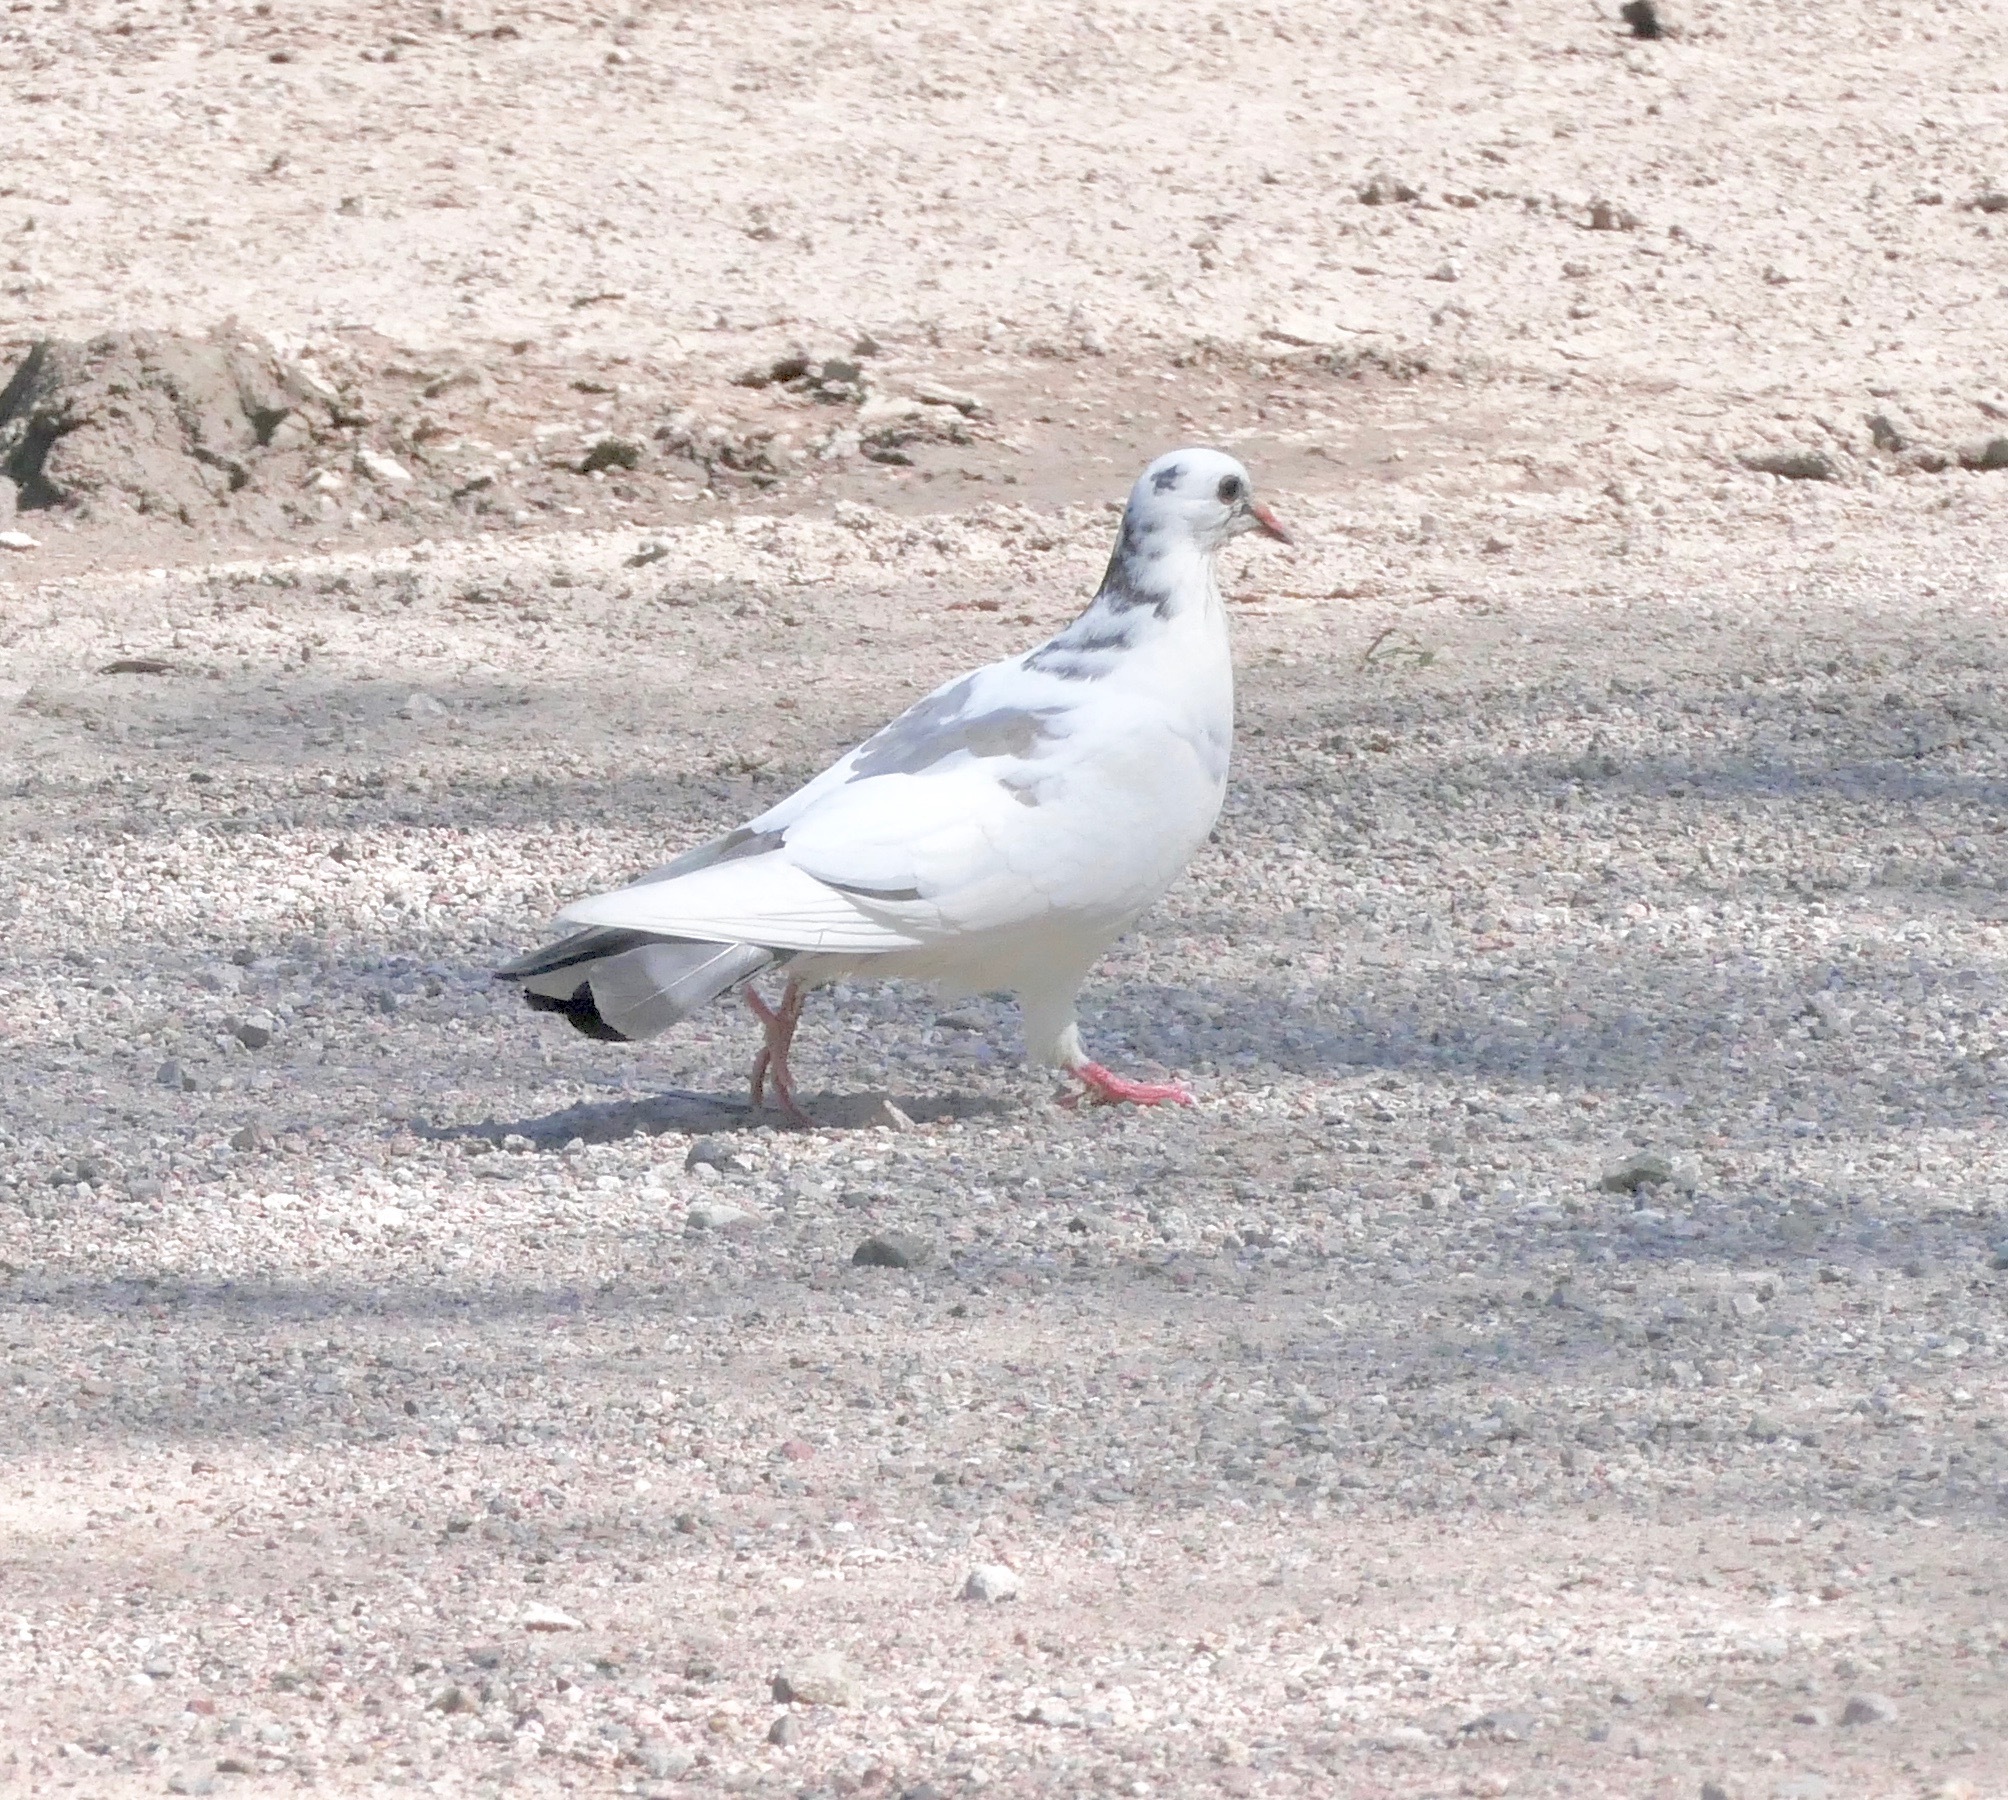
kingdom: Animalia
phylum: Chordata
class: Aves
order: Columbiformes
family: Columbidae
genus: Columba
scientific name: Columba livia
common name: Rock pigeon
